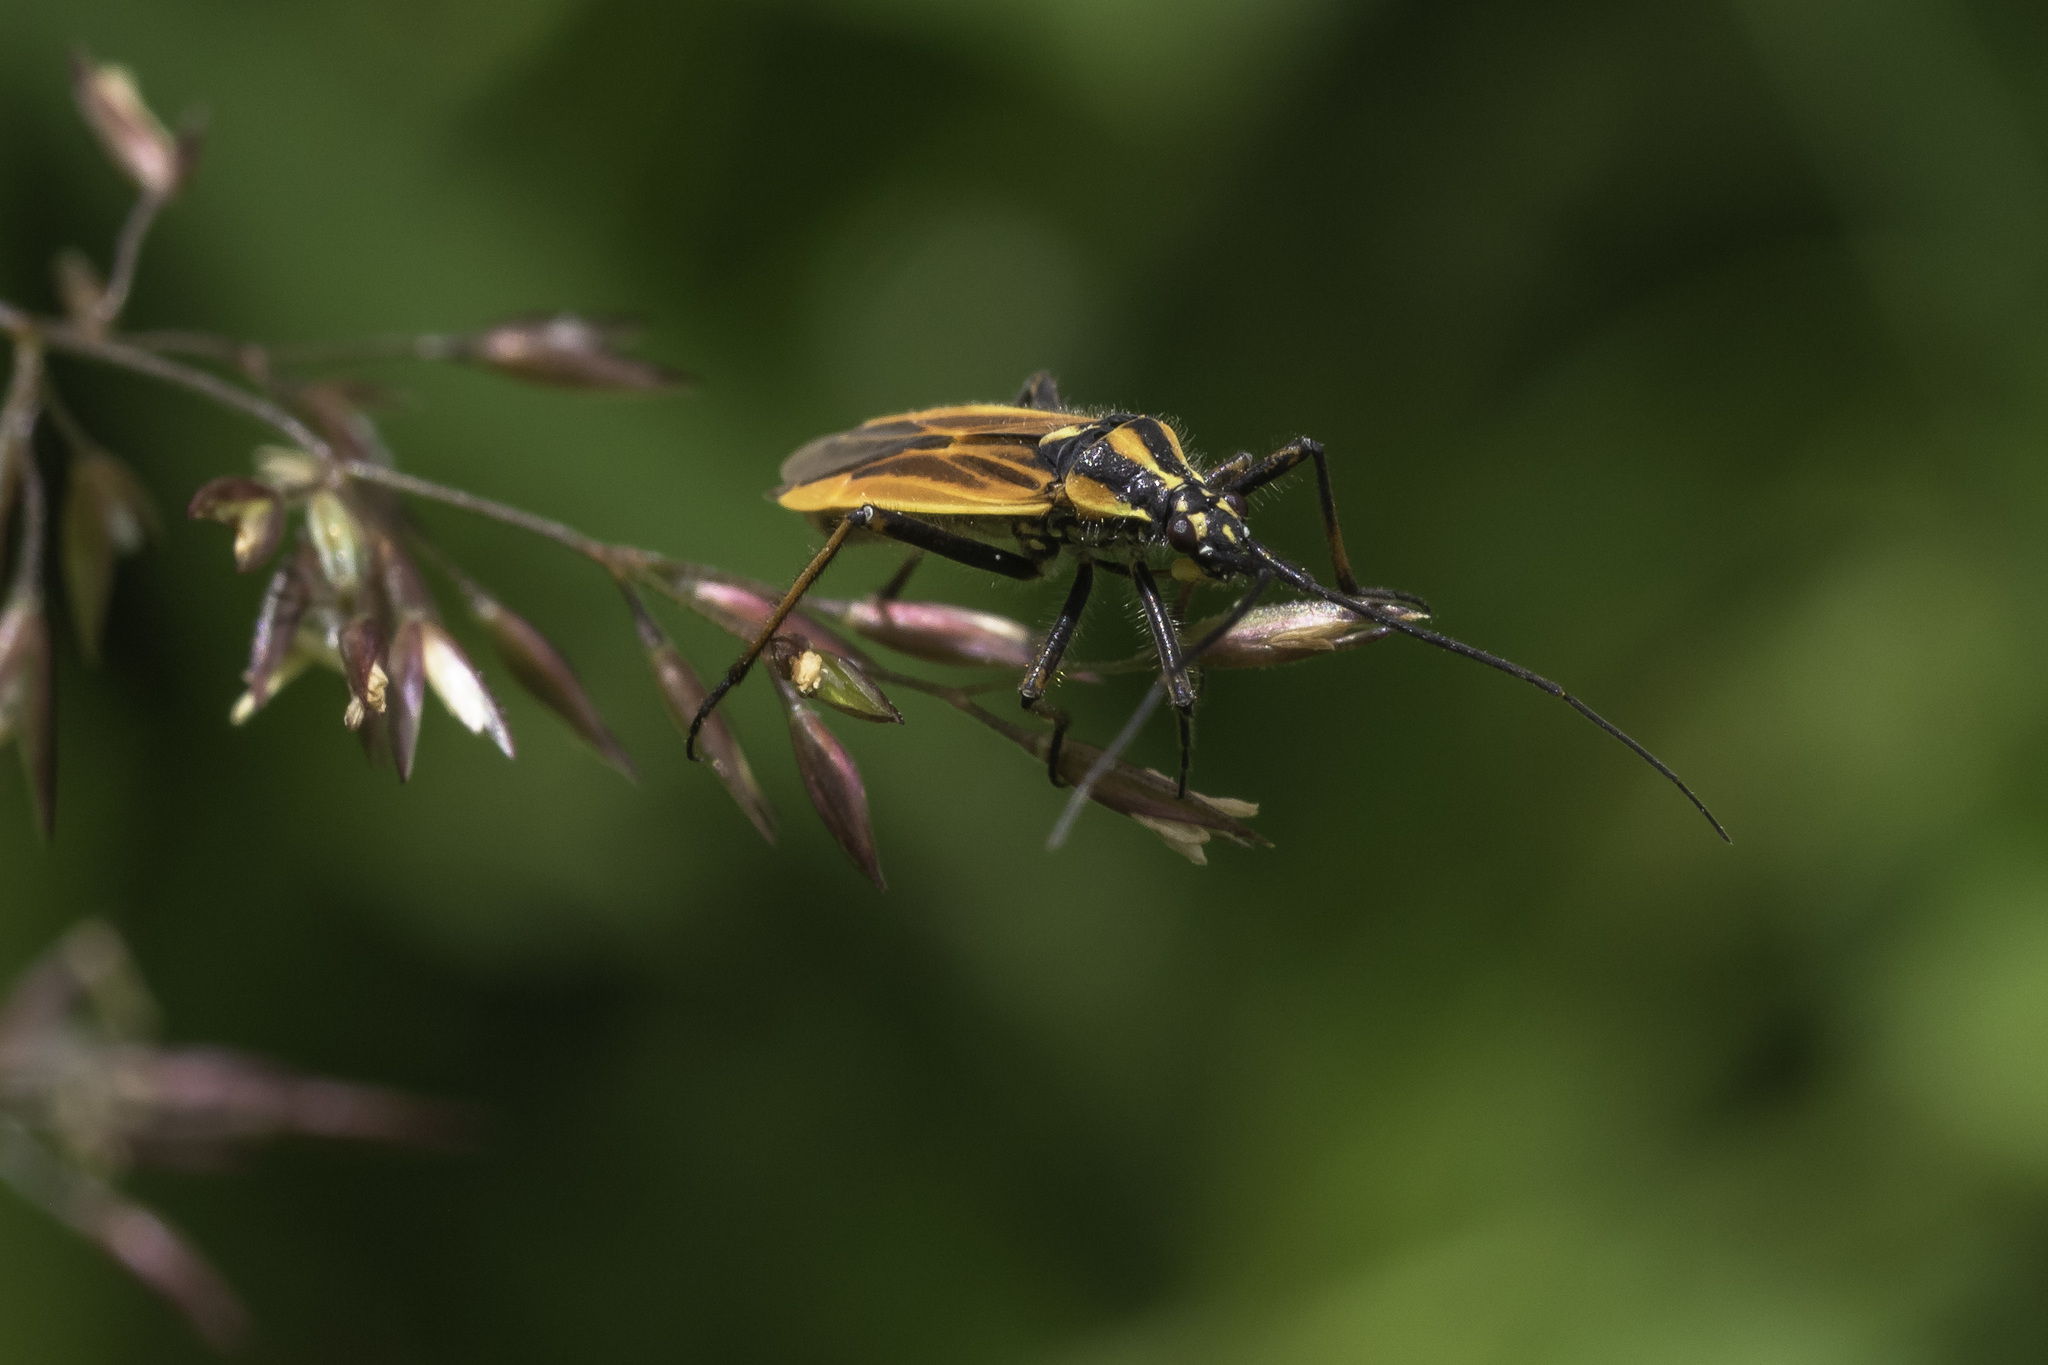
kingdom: Animalia
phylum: Arthropoda
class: Insecta
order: Hemiptera
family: Miridae
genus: Leptopterna
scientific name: Leptopterna dolabrata
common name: Meadow plant bug
